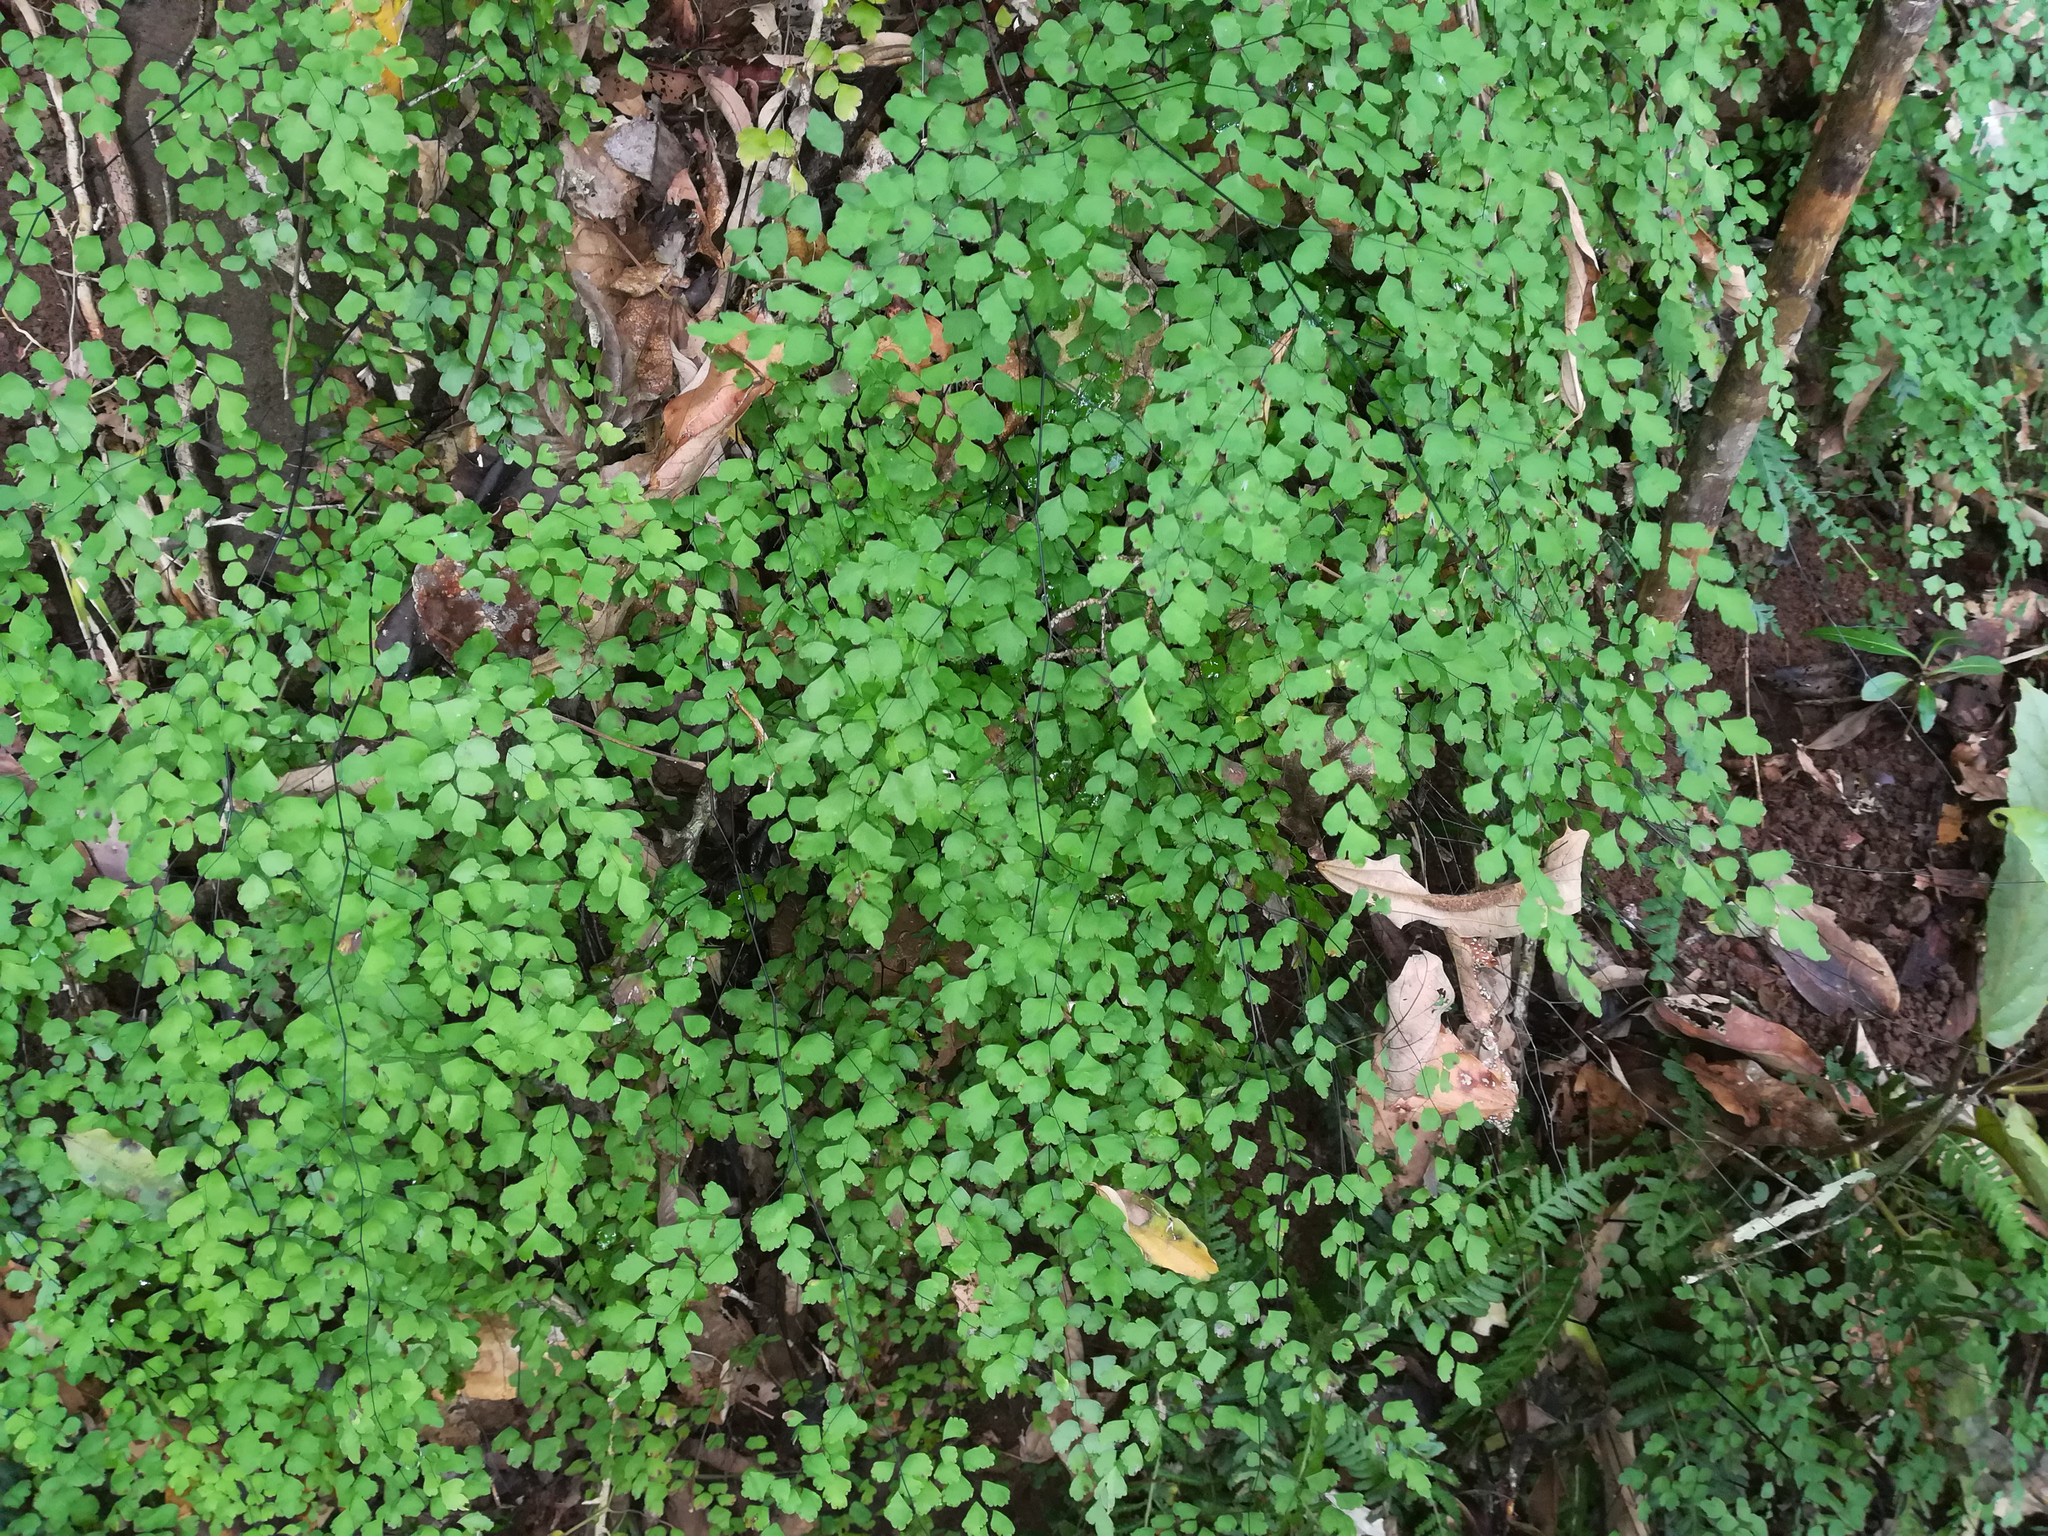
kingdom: Plantae
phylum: Tracheophyta
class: Polypodiopsida
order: Polypodiales
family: Pteridaceae
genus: Adiantum
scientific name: Adiantum atroviride
